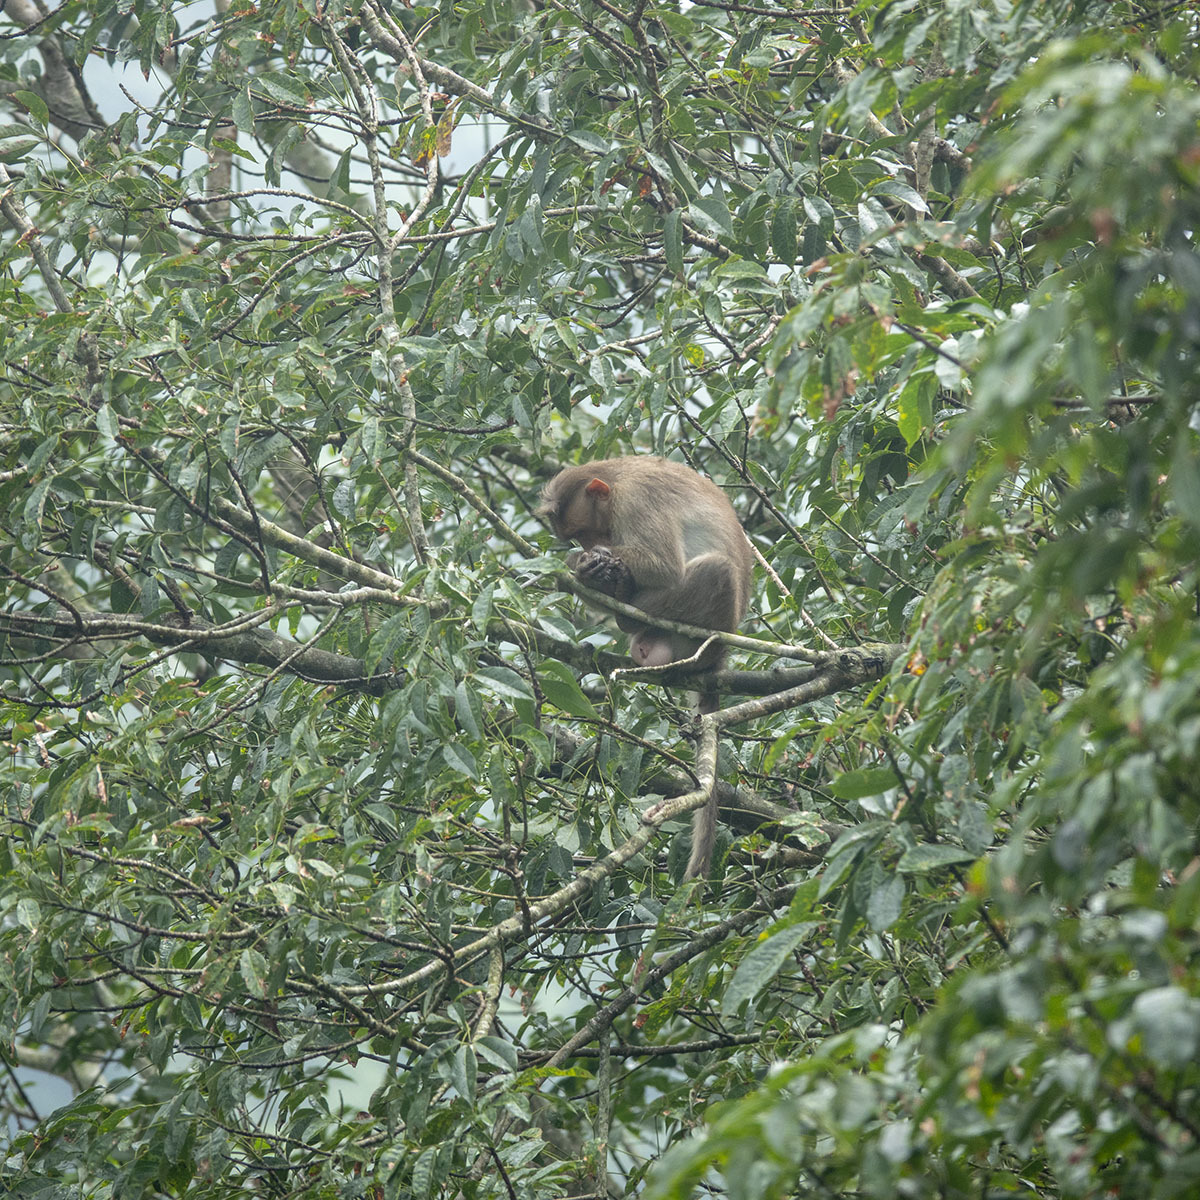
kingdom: Animalia
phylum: Chordata
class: Mammalia
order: Primates
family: Cercopithecidae
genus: Macaca
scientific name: Macaca radiata
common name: Bonnet macaque
